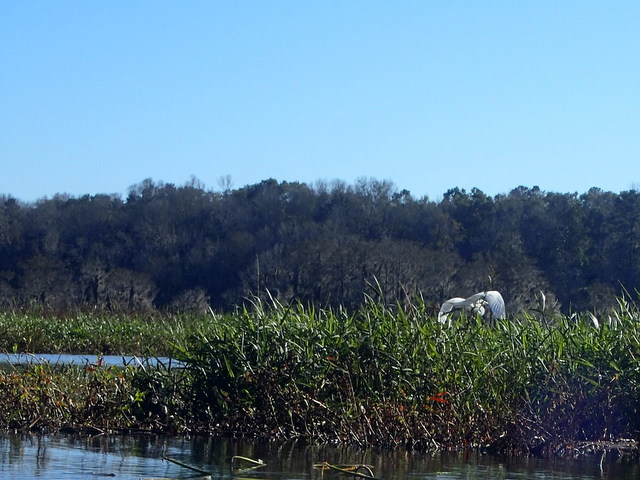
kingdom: Animalia
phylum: Chordata
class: Aves
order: Pelecaniformes
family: Ardeidae
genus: Ardea
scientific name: Ardea alba
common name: Great egret
